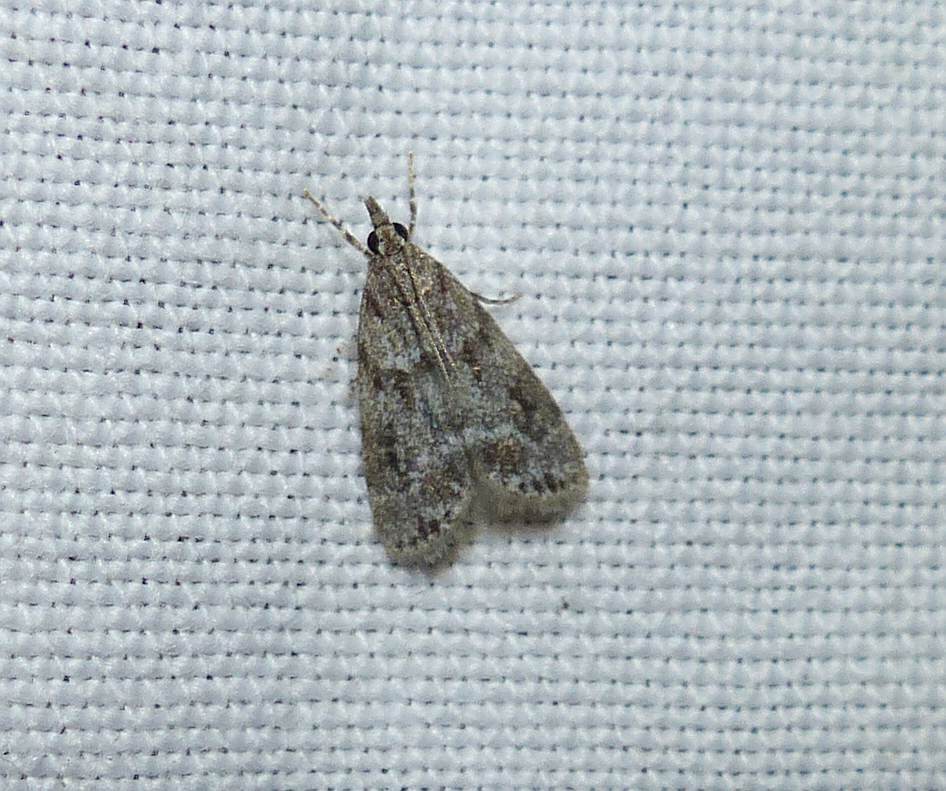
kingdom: Animalia
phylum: Arthropoda
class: Insecta
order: Lepidoptera
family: Crambidae
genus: Scoparia
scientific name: Scoparia basalis
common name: Many-spotted scoparia moth
